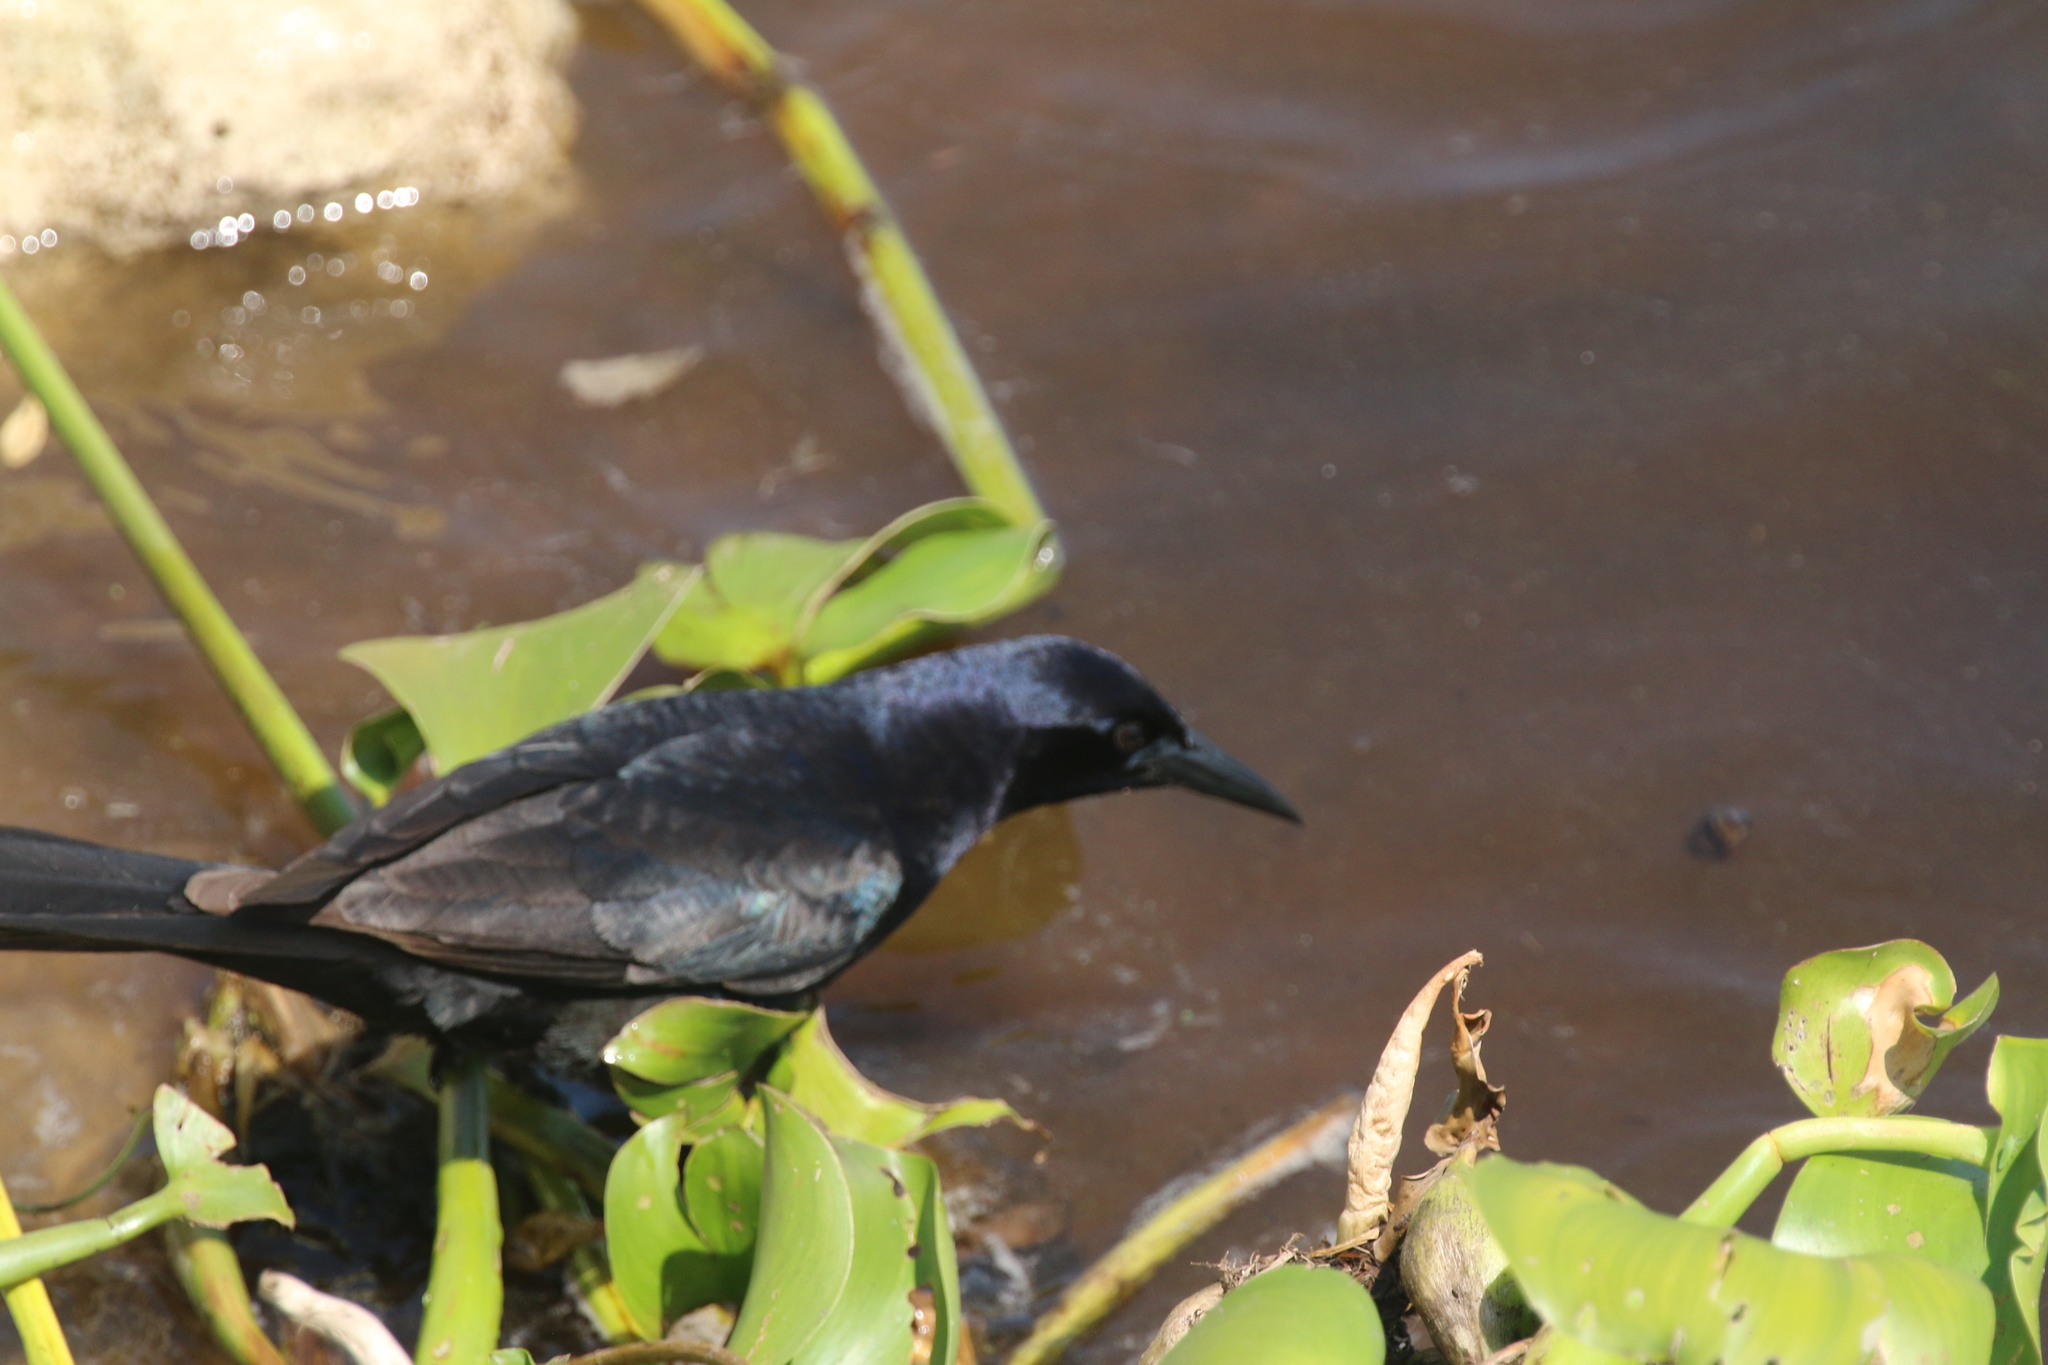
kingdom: Animalia
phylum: Chordata
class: Aves
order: Passeriformes
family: Icteridae
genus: Quiscalus
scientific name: Quiscalus major
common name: Boat-tailed grackle
